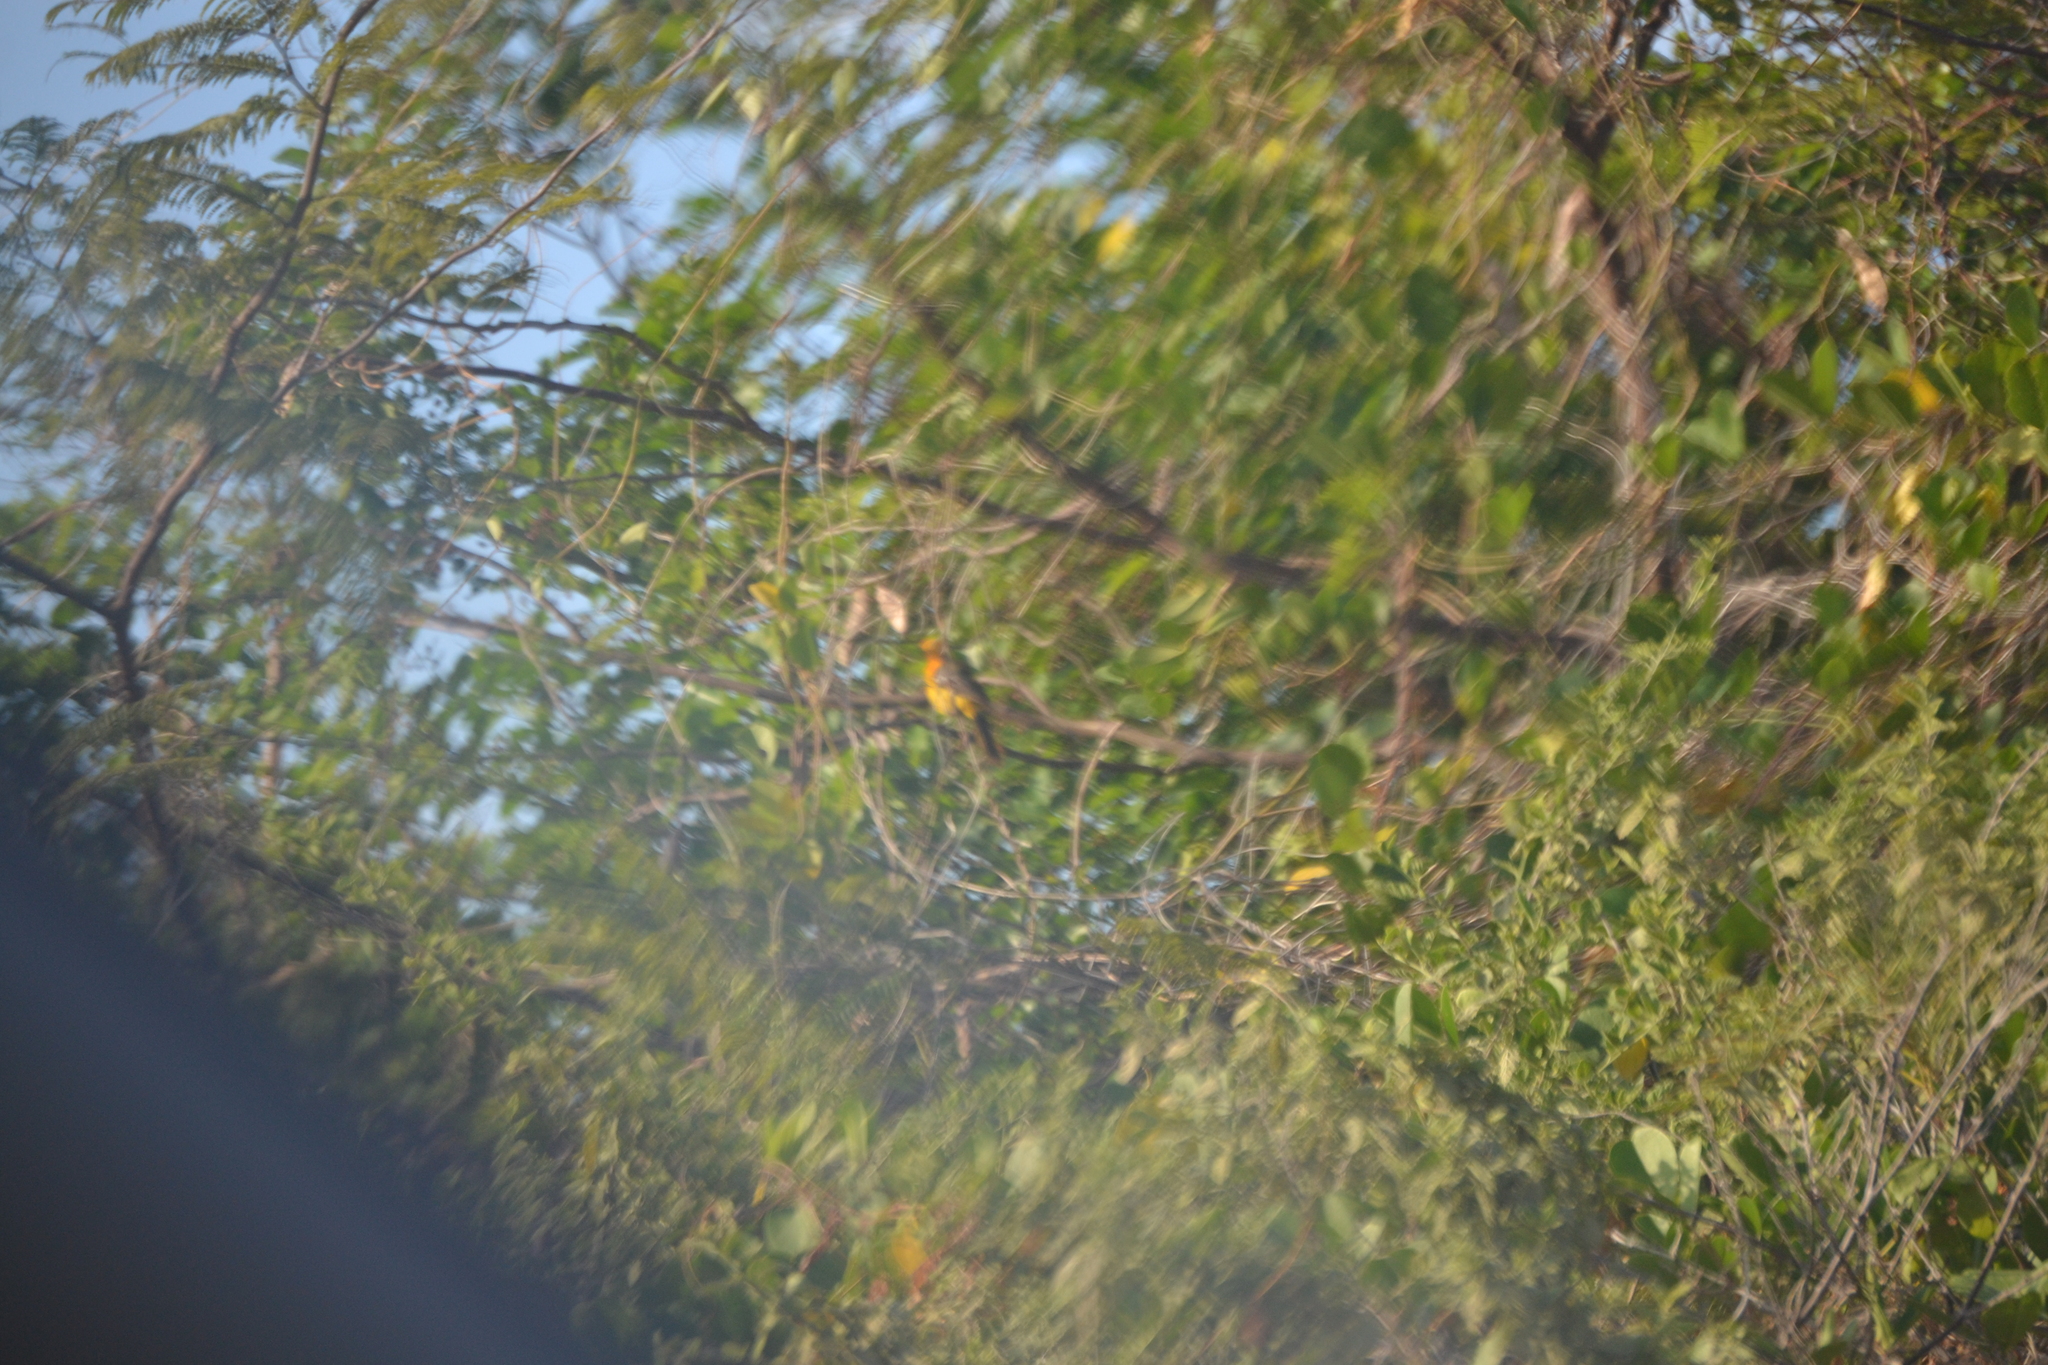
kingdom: Animalia
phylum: Chordata
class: Aves
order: Passeriformes
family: Icteridae
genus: Icterus
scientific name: Icterus
